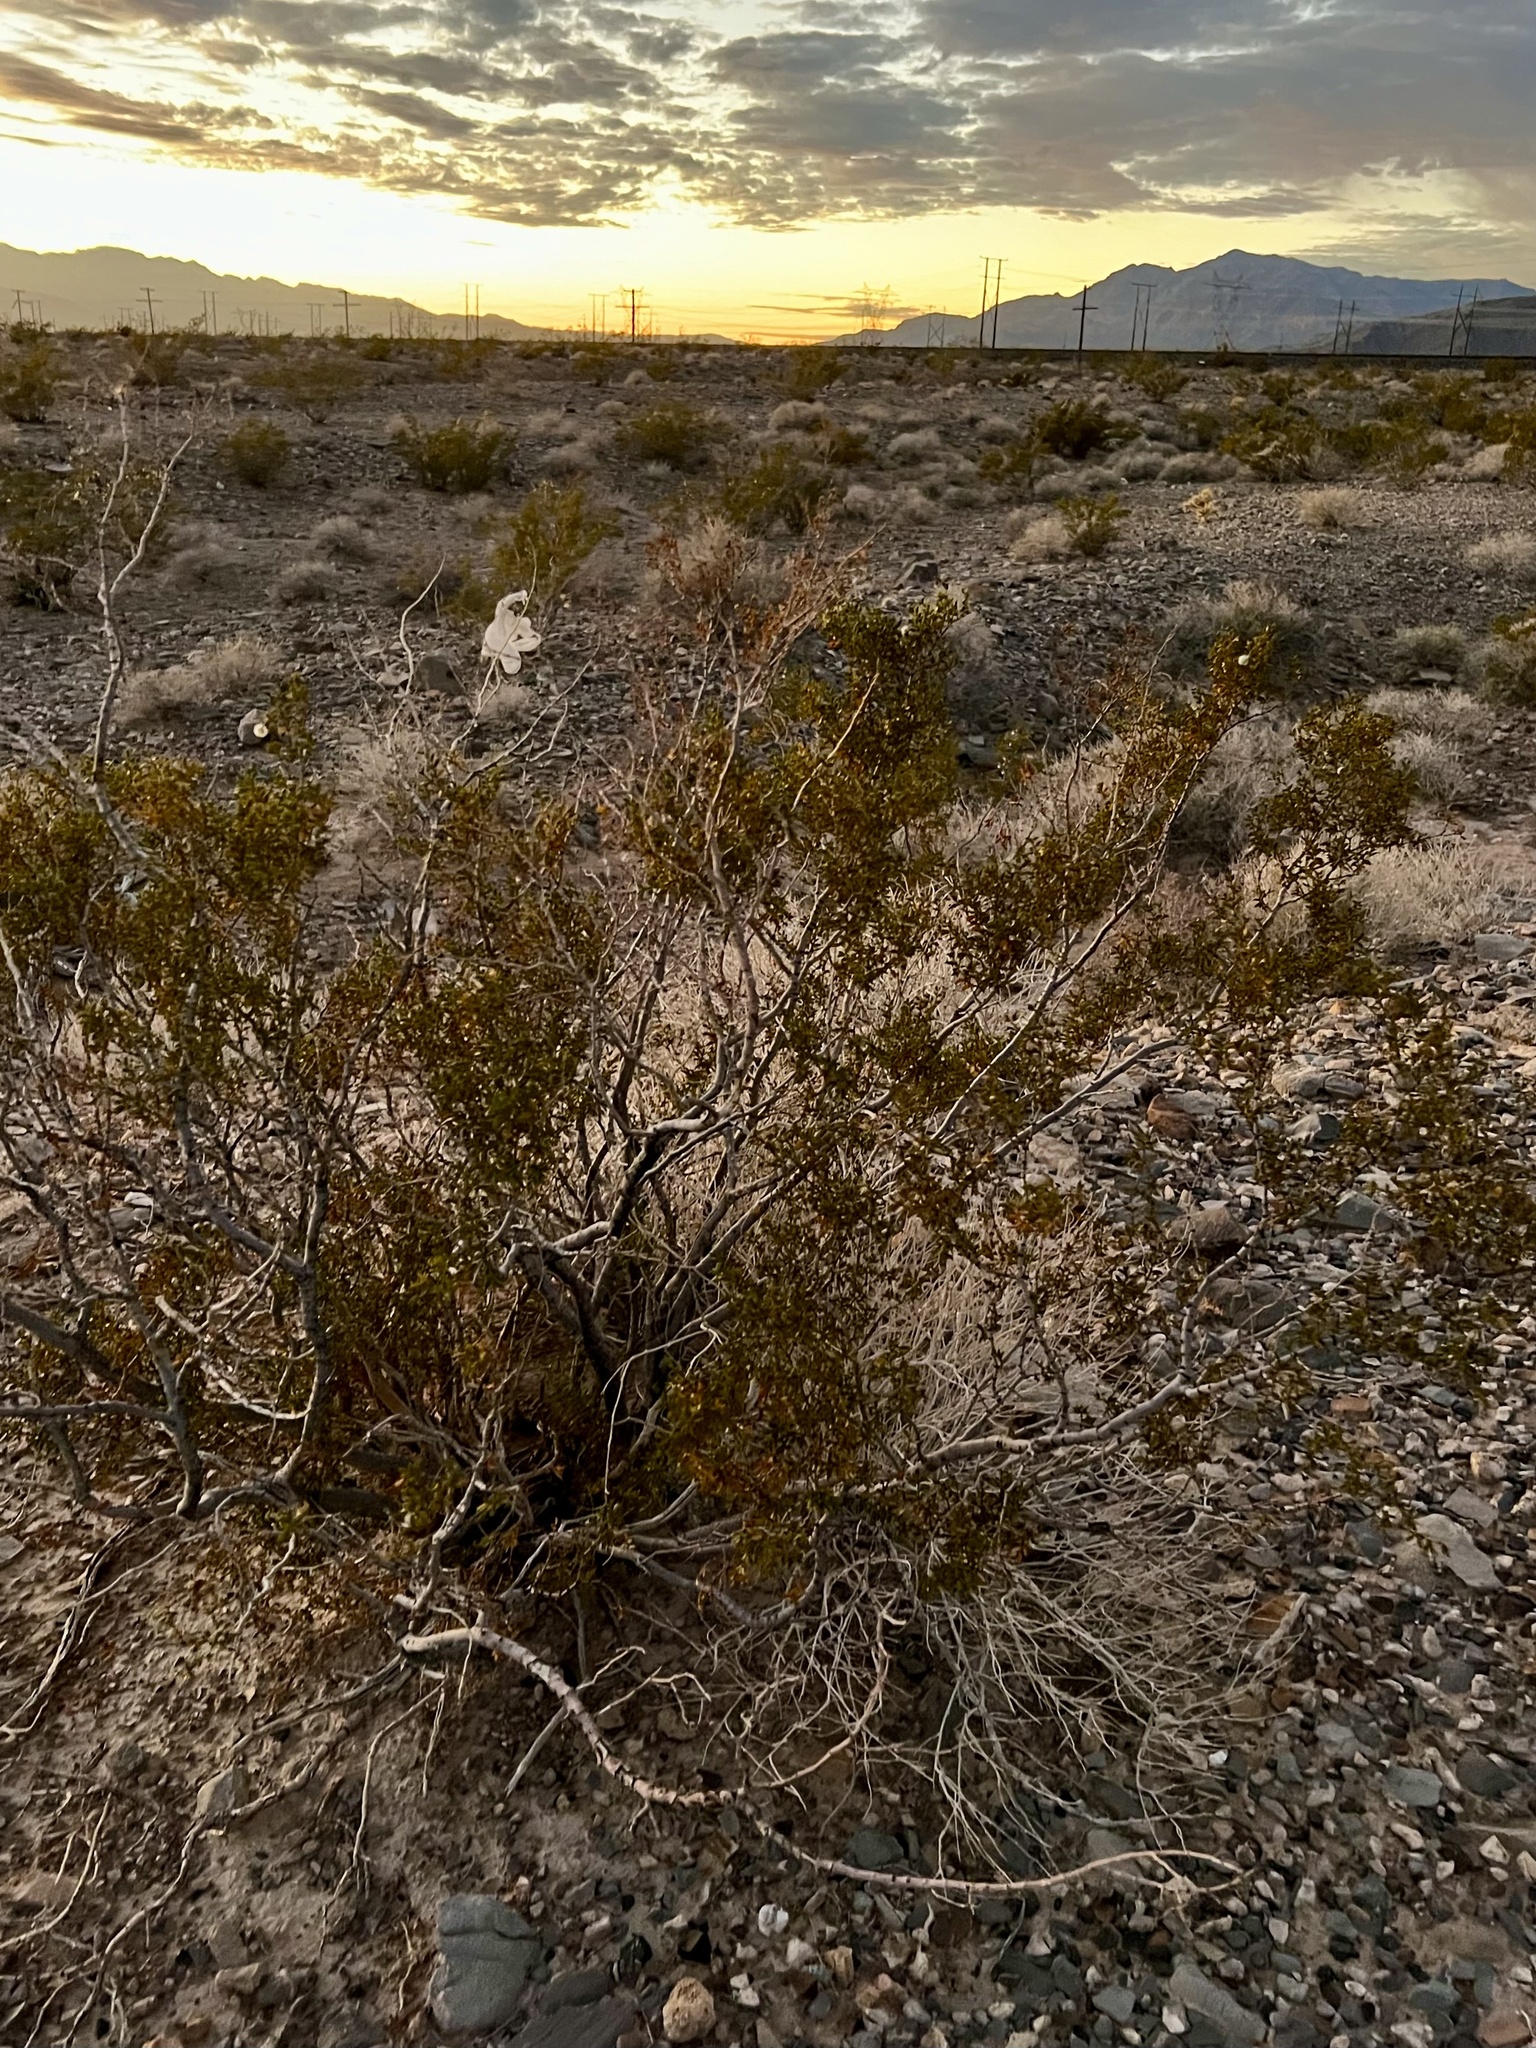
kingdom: Plantae
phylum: Tracheophyta
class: Magnoliopsida
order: Zygophyllales
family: Zygophyllaceae
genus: Larrea
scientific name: Larrea tridentata
